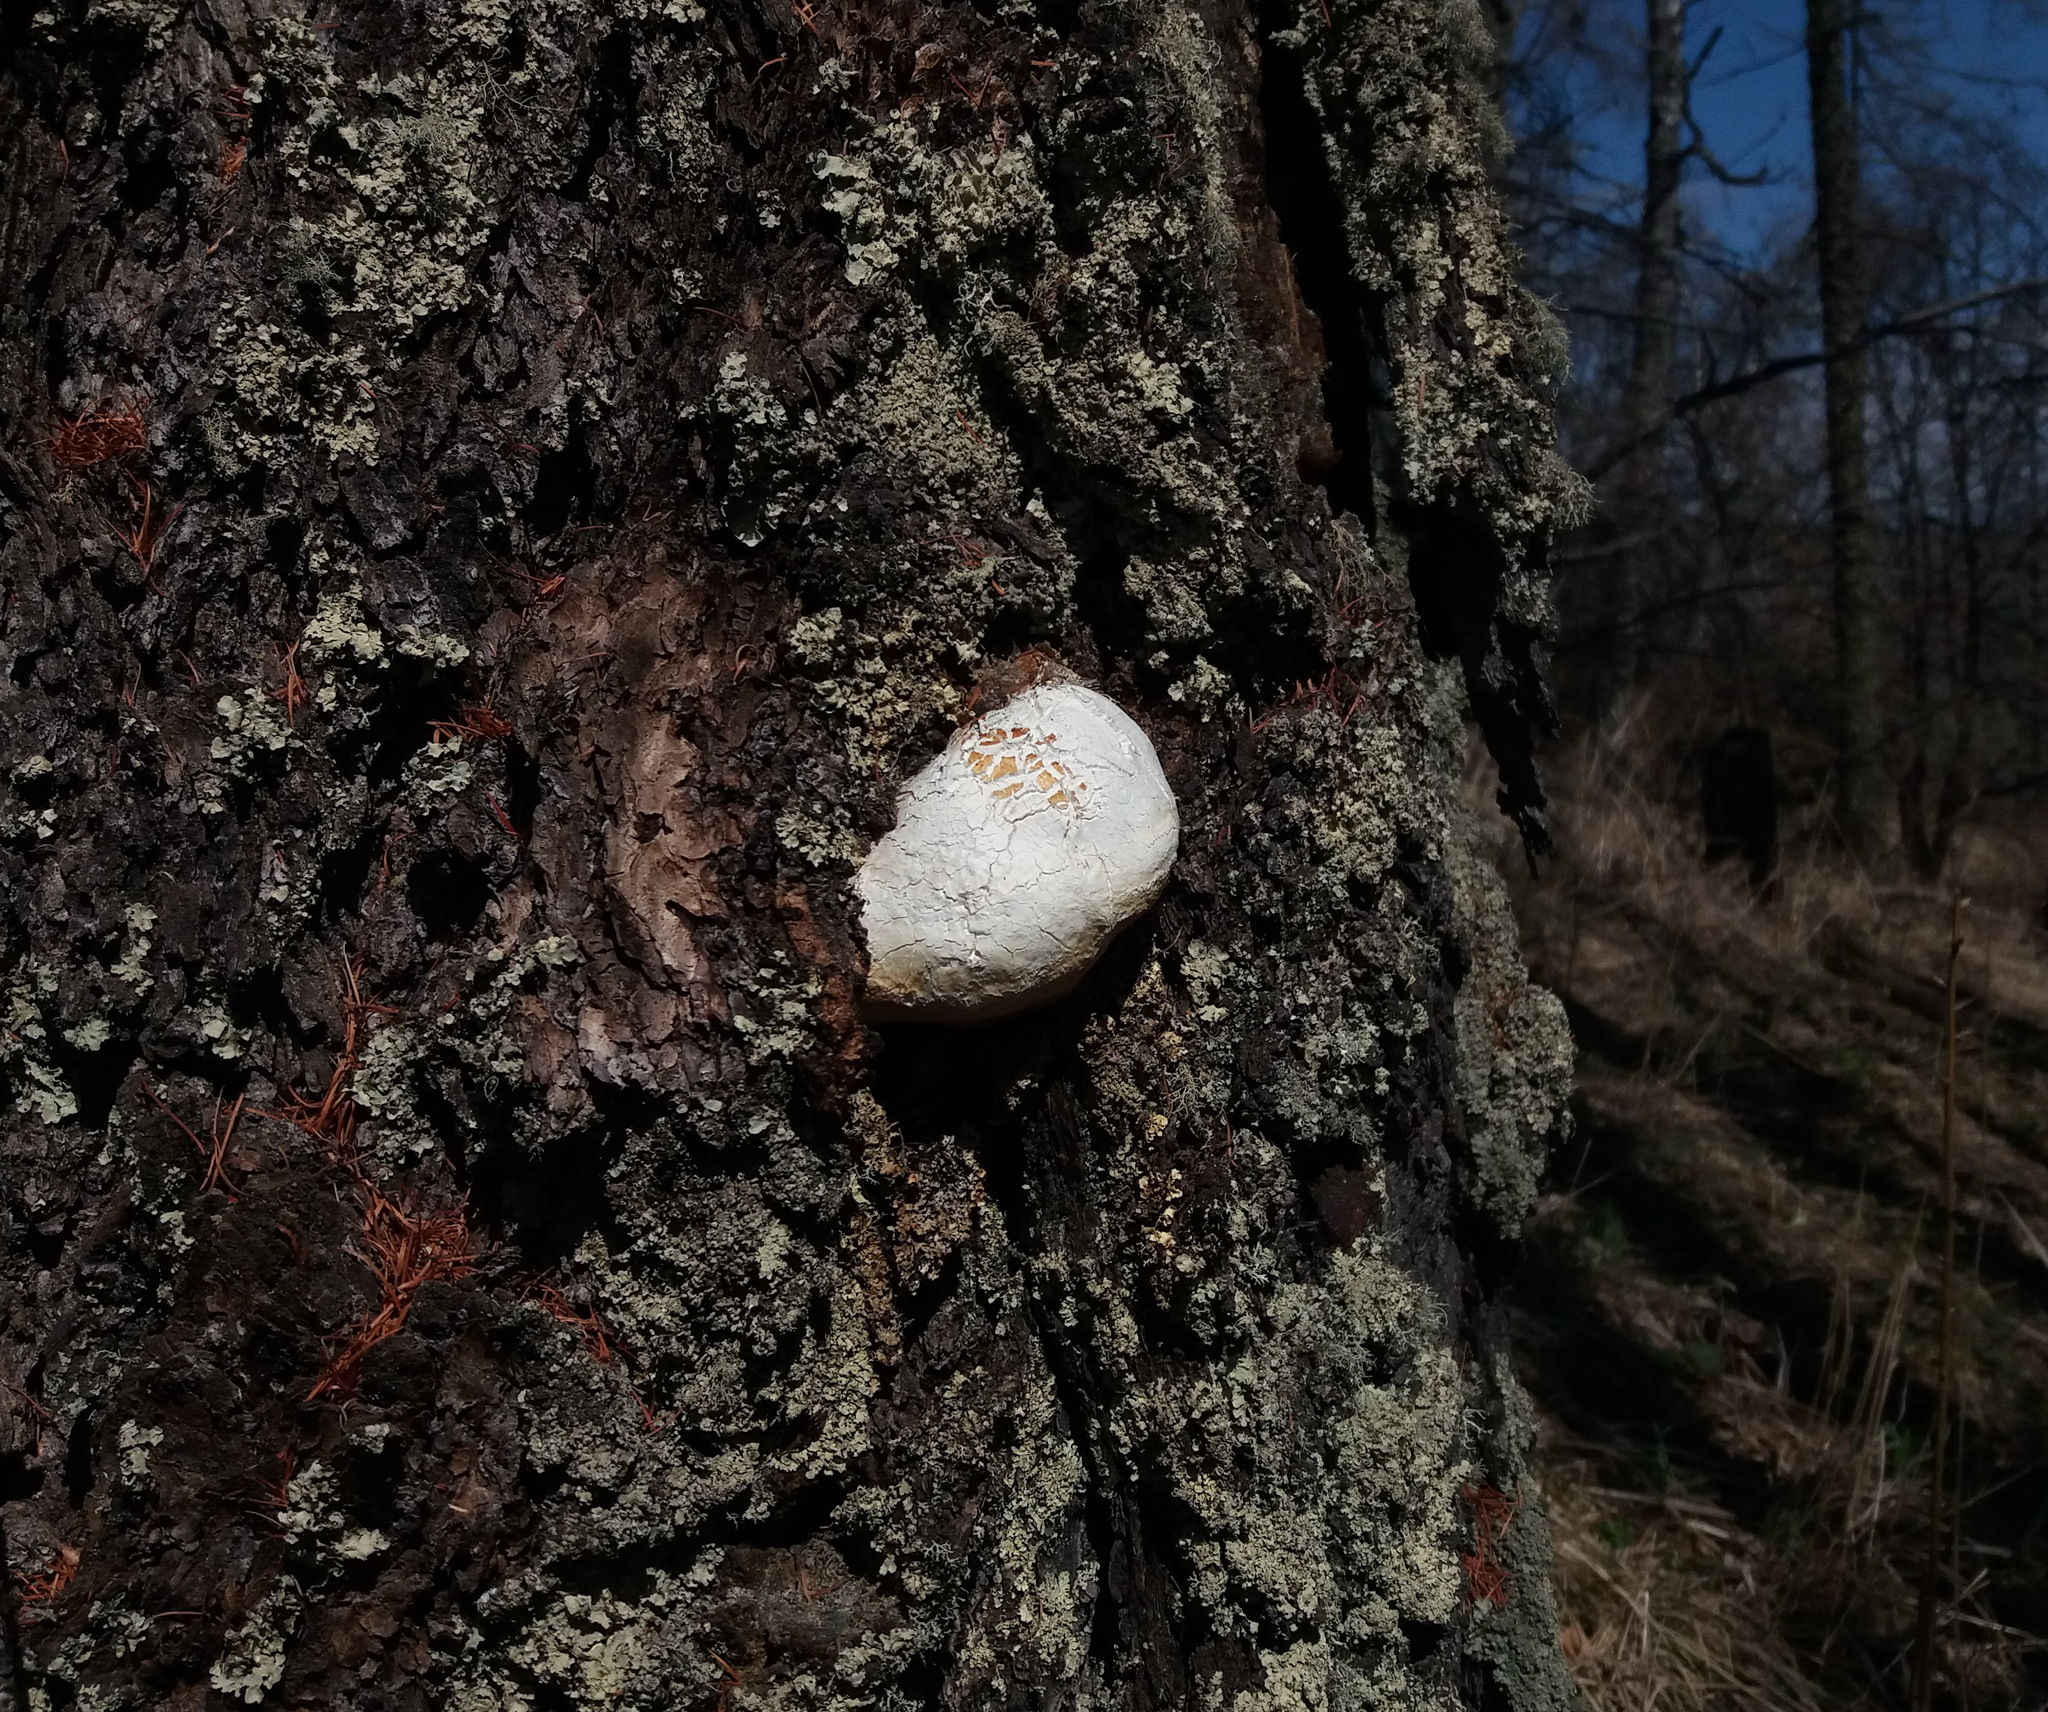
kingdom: Fungi
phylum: Basidiomycota
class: Agaricomycetes
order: Polyporales
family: Fomitopsidaceae
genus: Fomitopsis
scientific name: Fomitopsis officinalis
